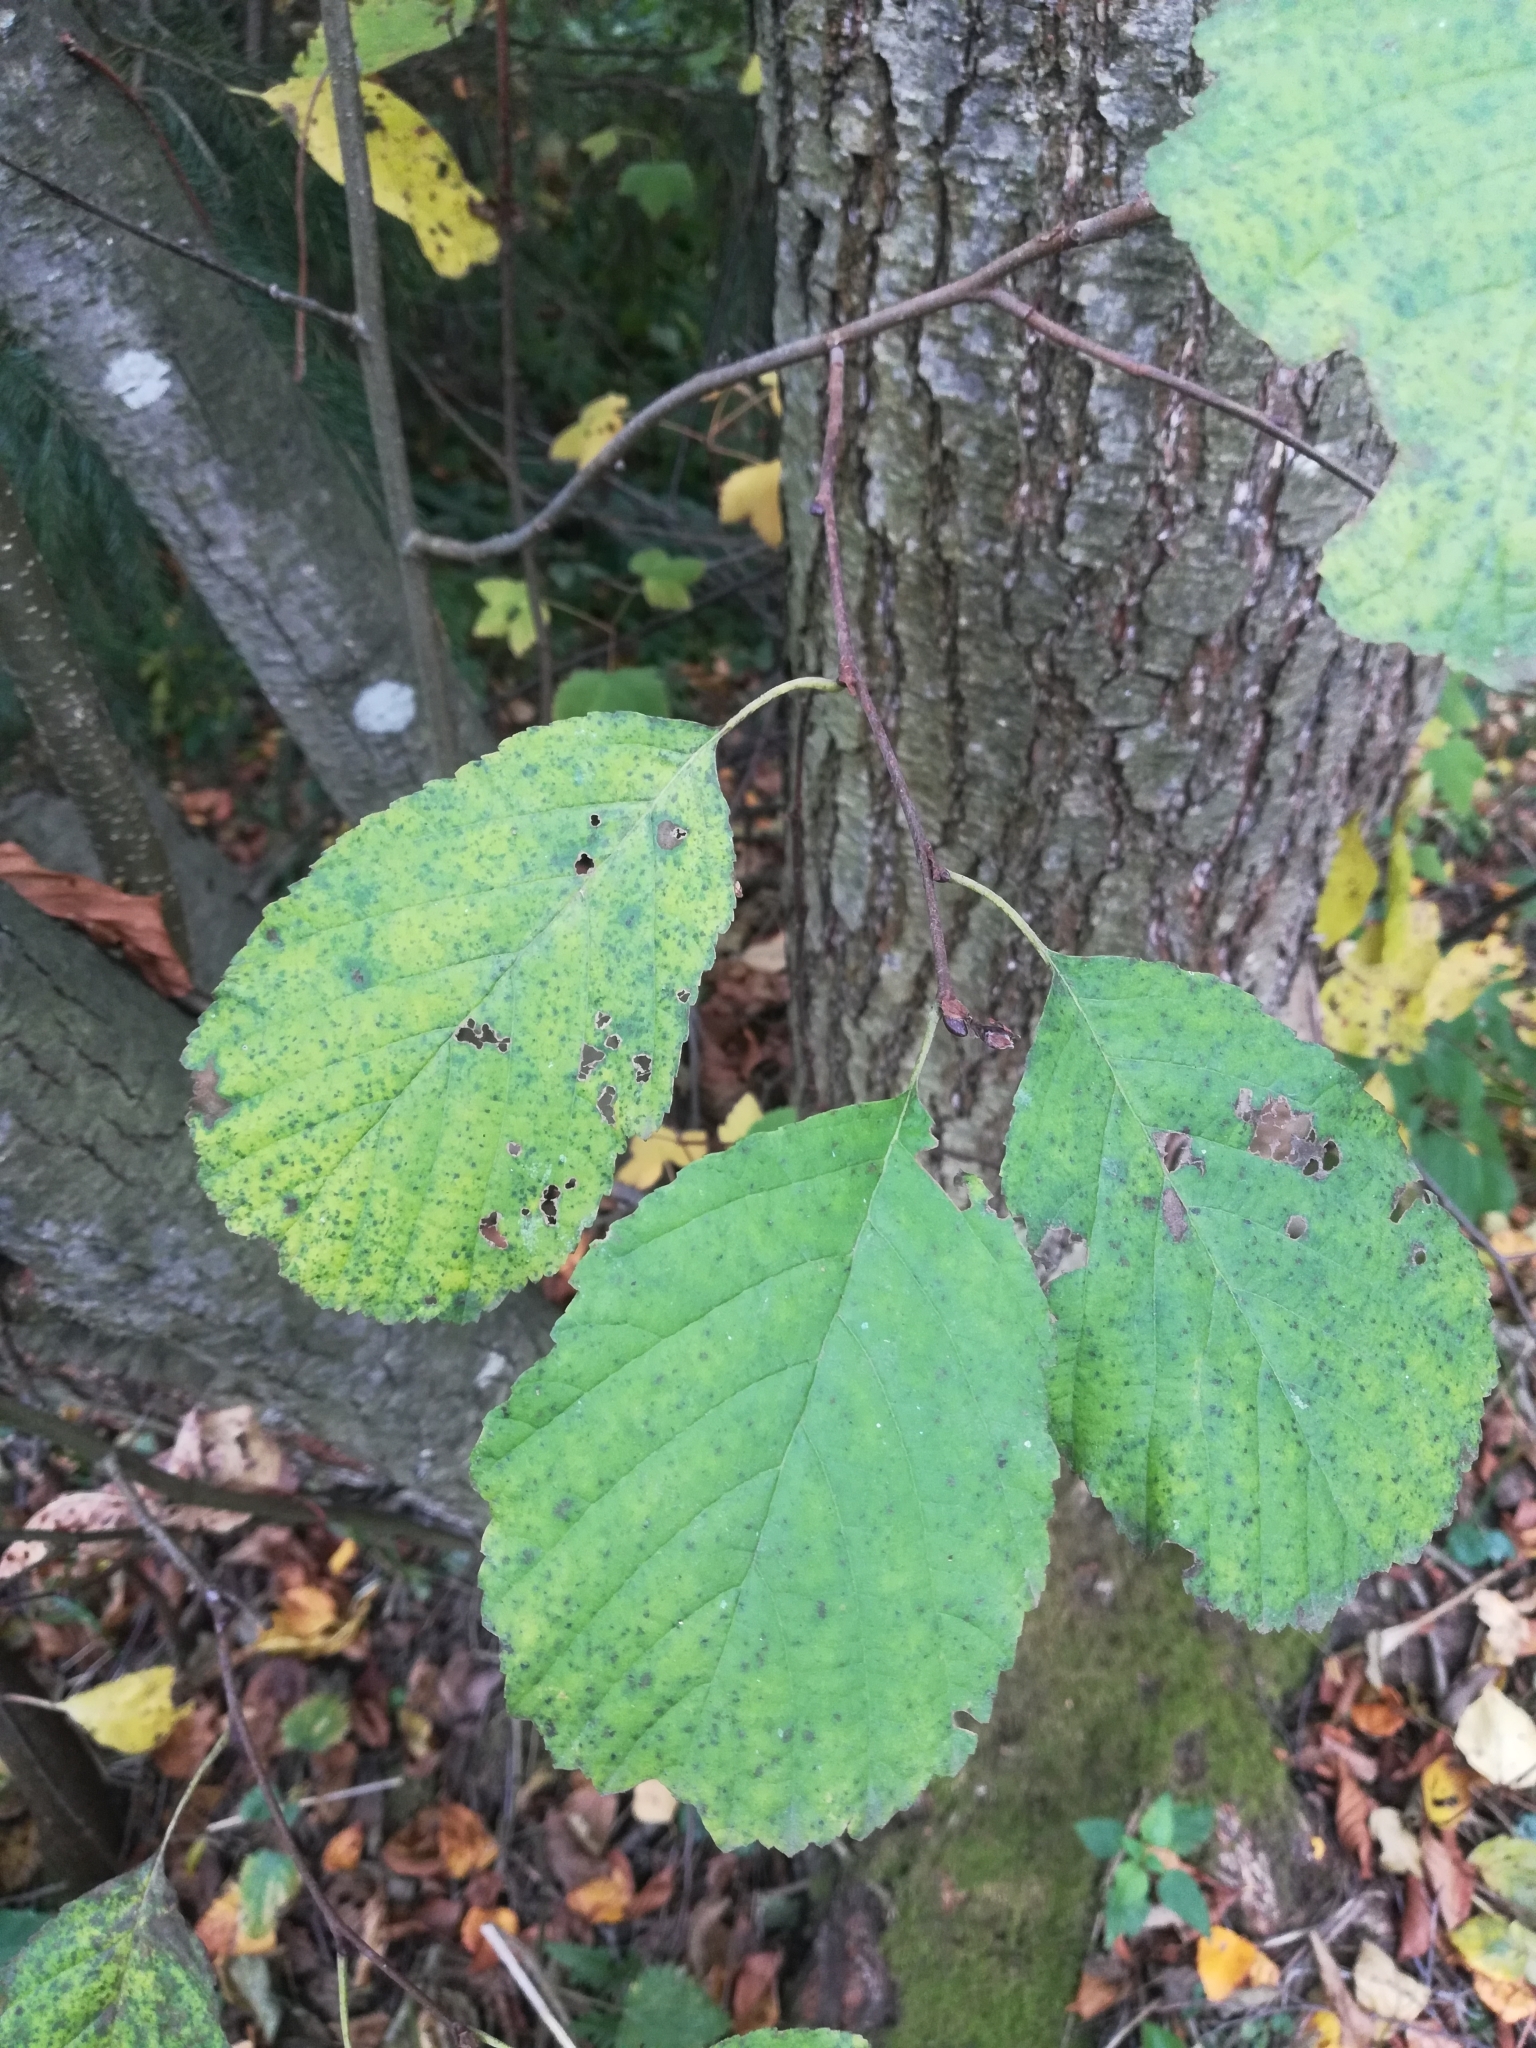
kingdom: Plantae
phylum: Tracheophyta
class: Magnoliopsida
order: Fagales
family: Betulaceae
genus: Alnus
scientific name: Alnus glutinosa
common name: Black alder
